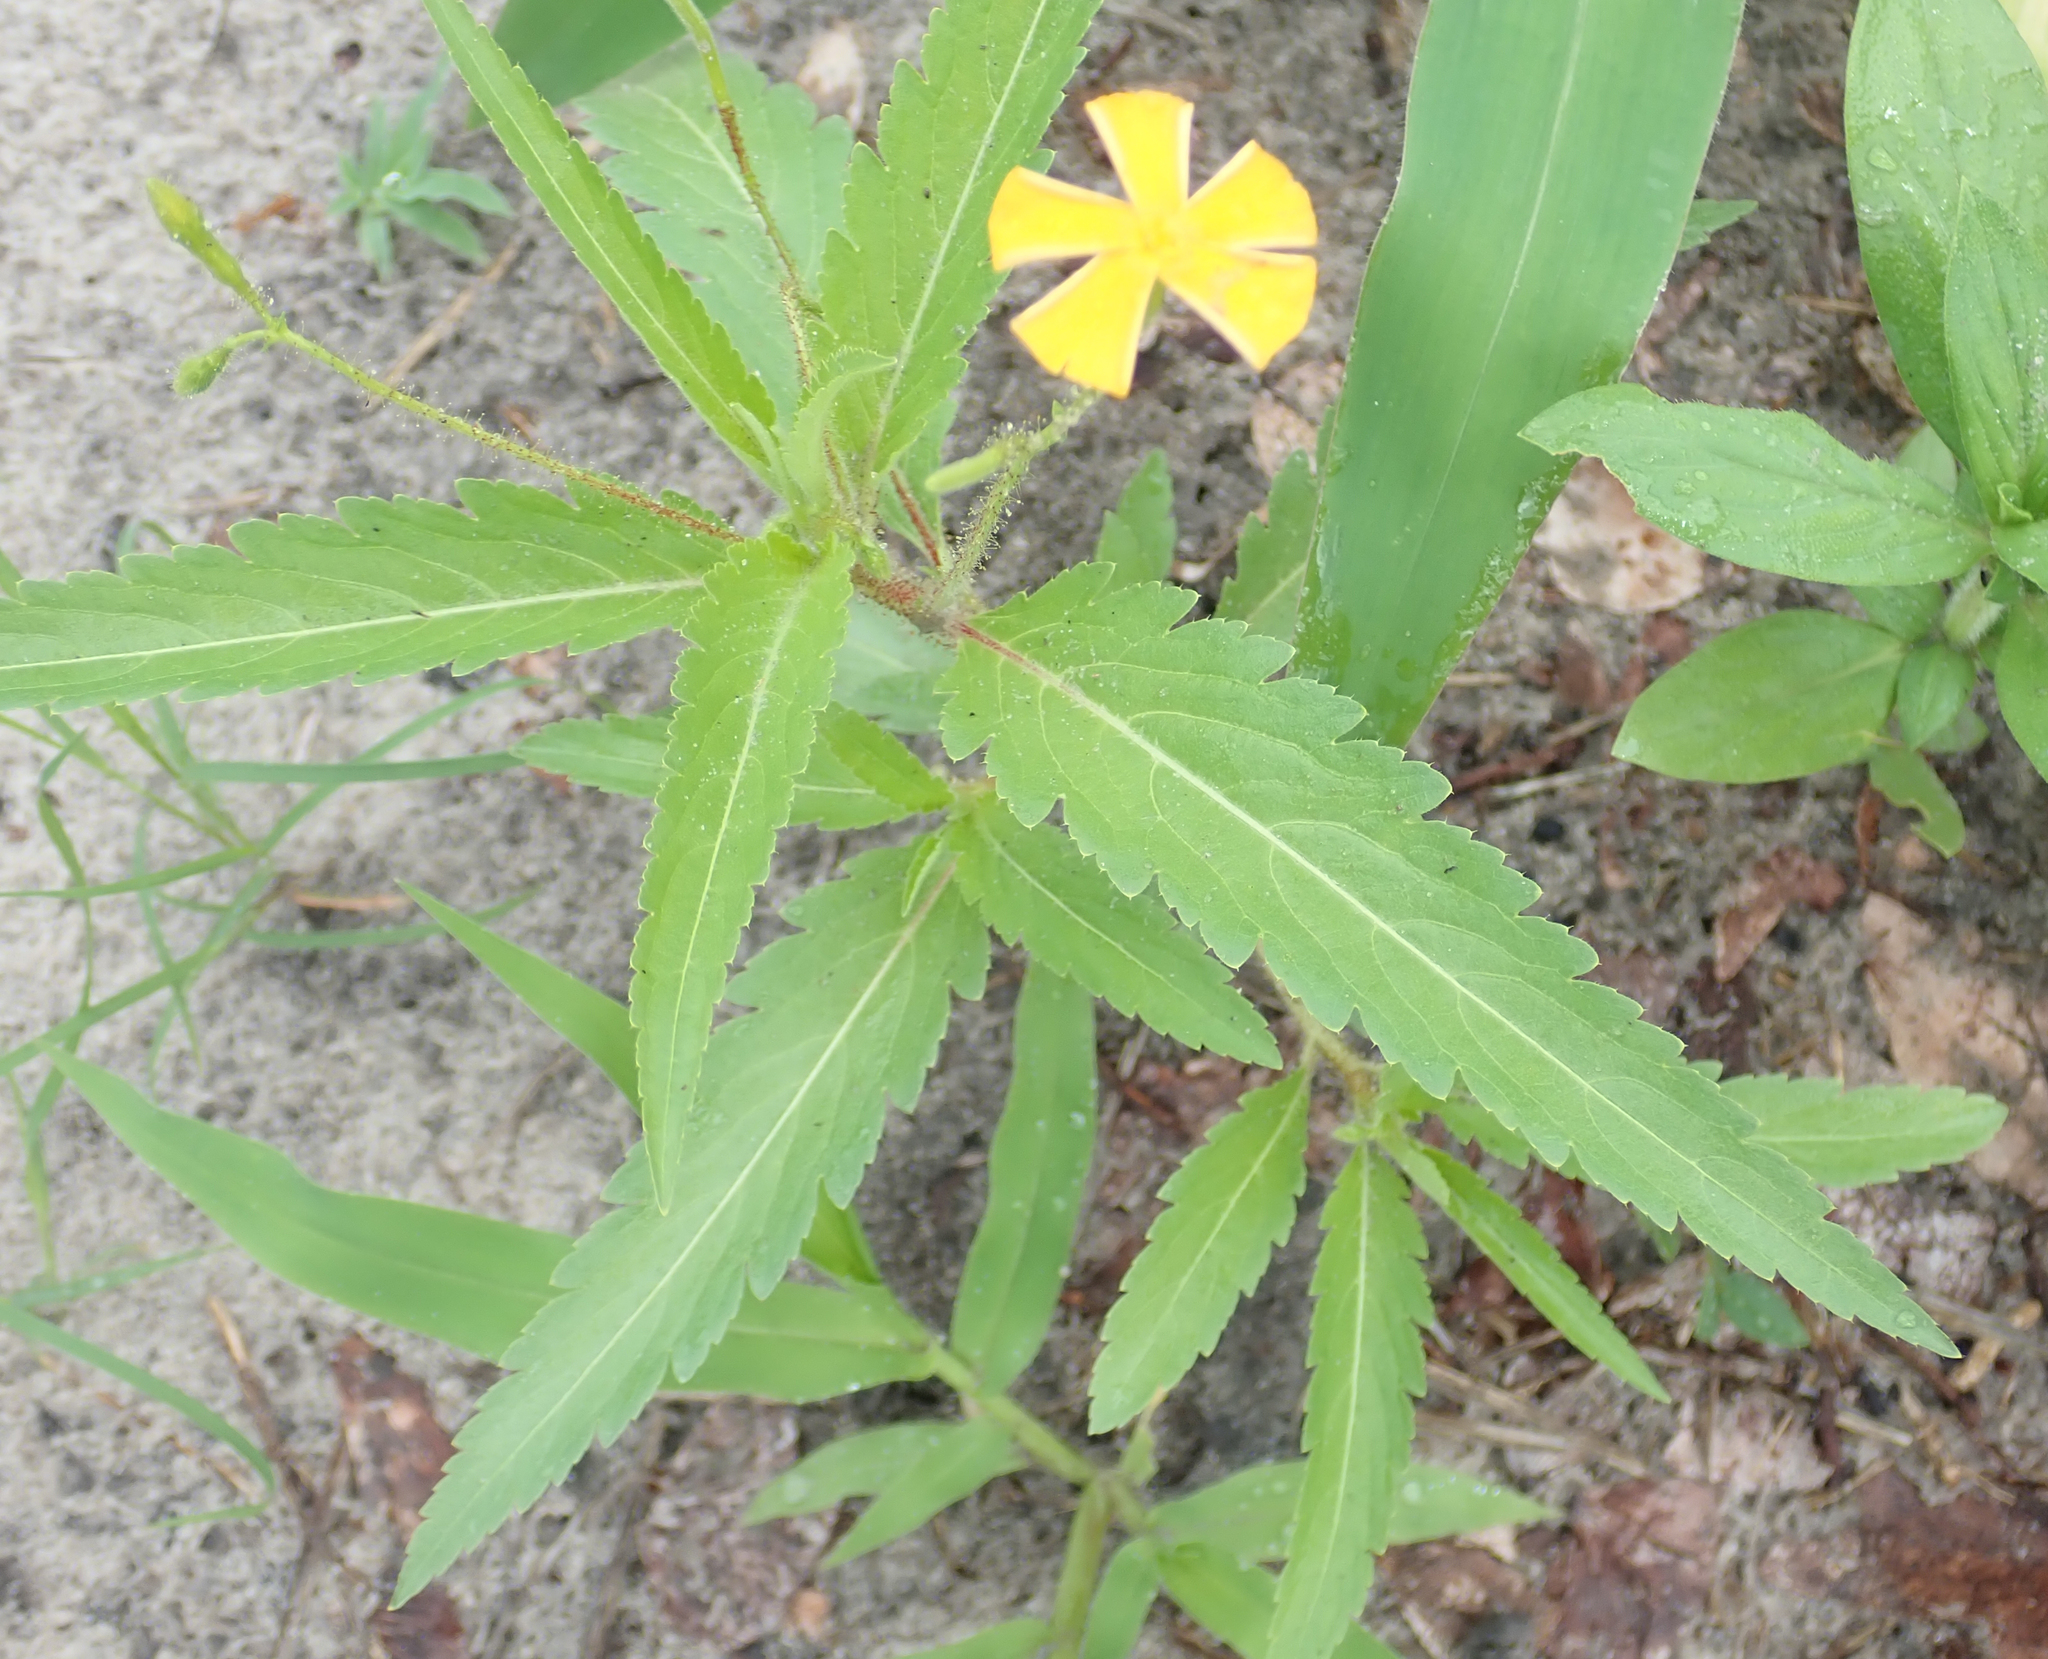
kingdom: Plantae
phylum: Tracheophyta
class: Magnoliopsida
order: Malpighiales
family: Turneraceae
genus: Tricliceras
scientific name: Tricliceras glanduliferum
